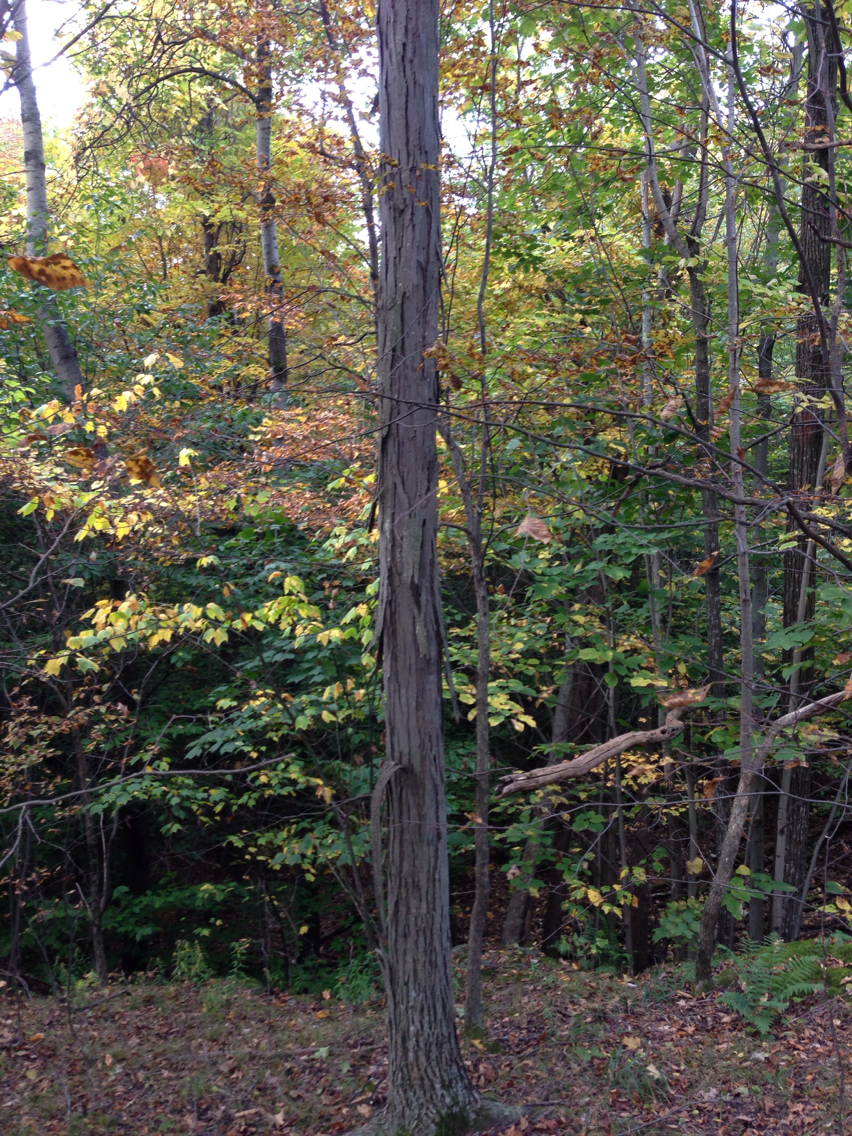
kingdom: Plantae
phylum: Tracheophyta
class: Magnoliopsida
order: Fagales
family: Juglandaceae
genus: Carya
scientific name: Carya ovata
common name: Shagbark hickory
